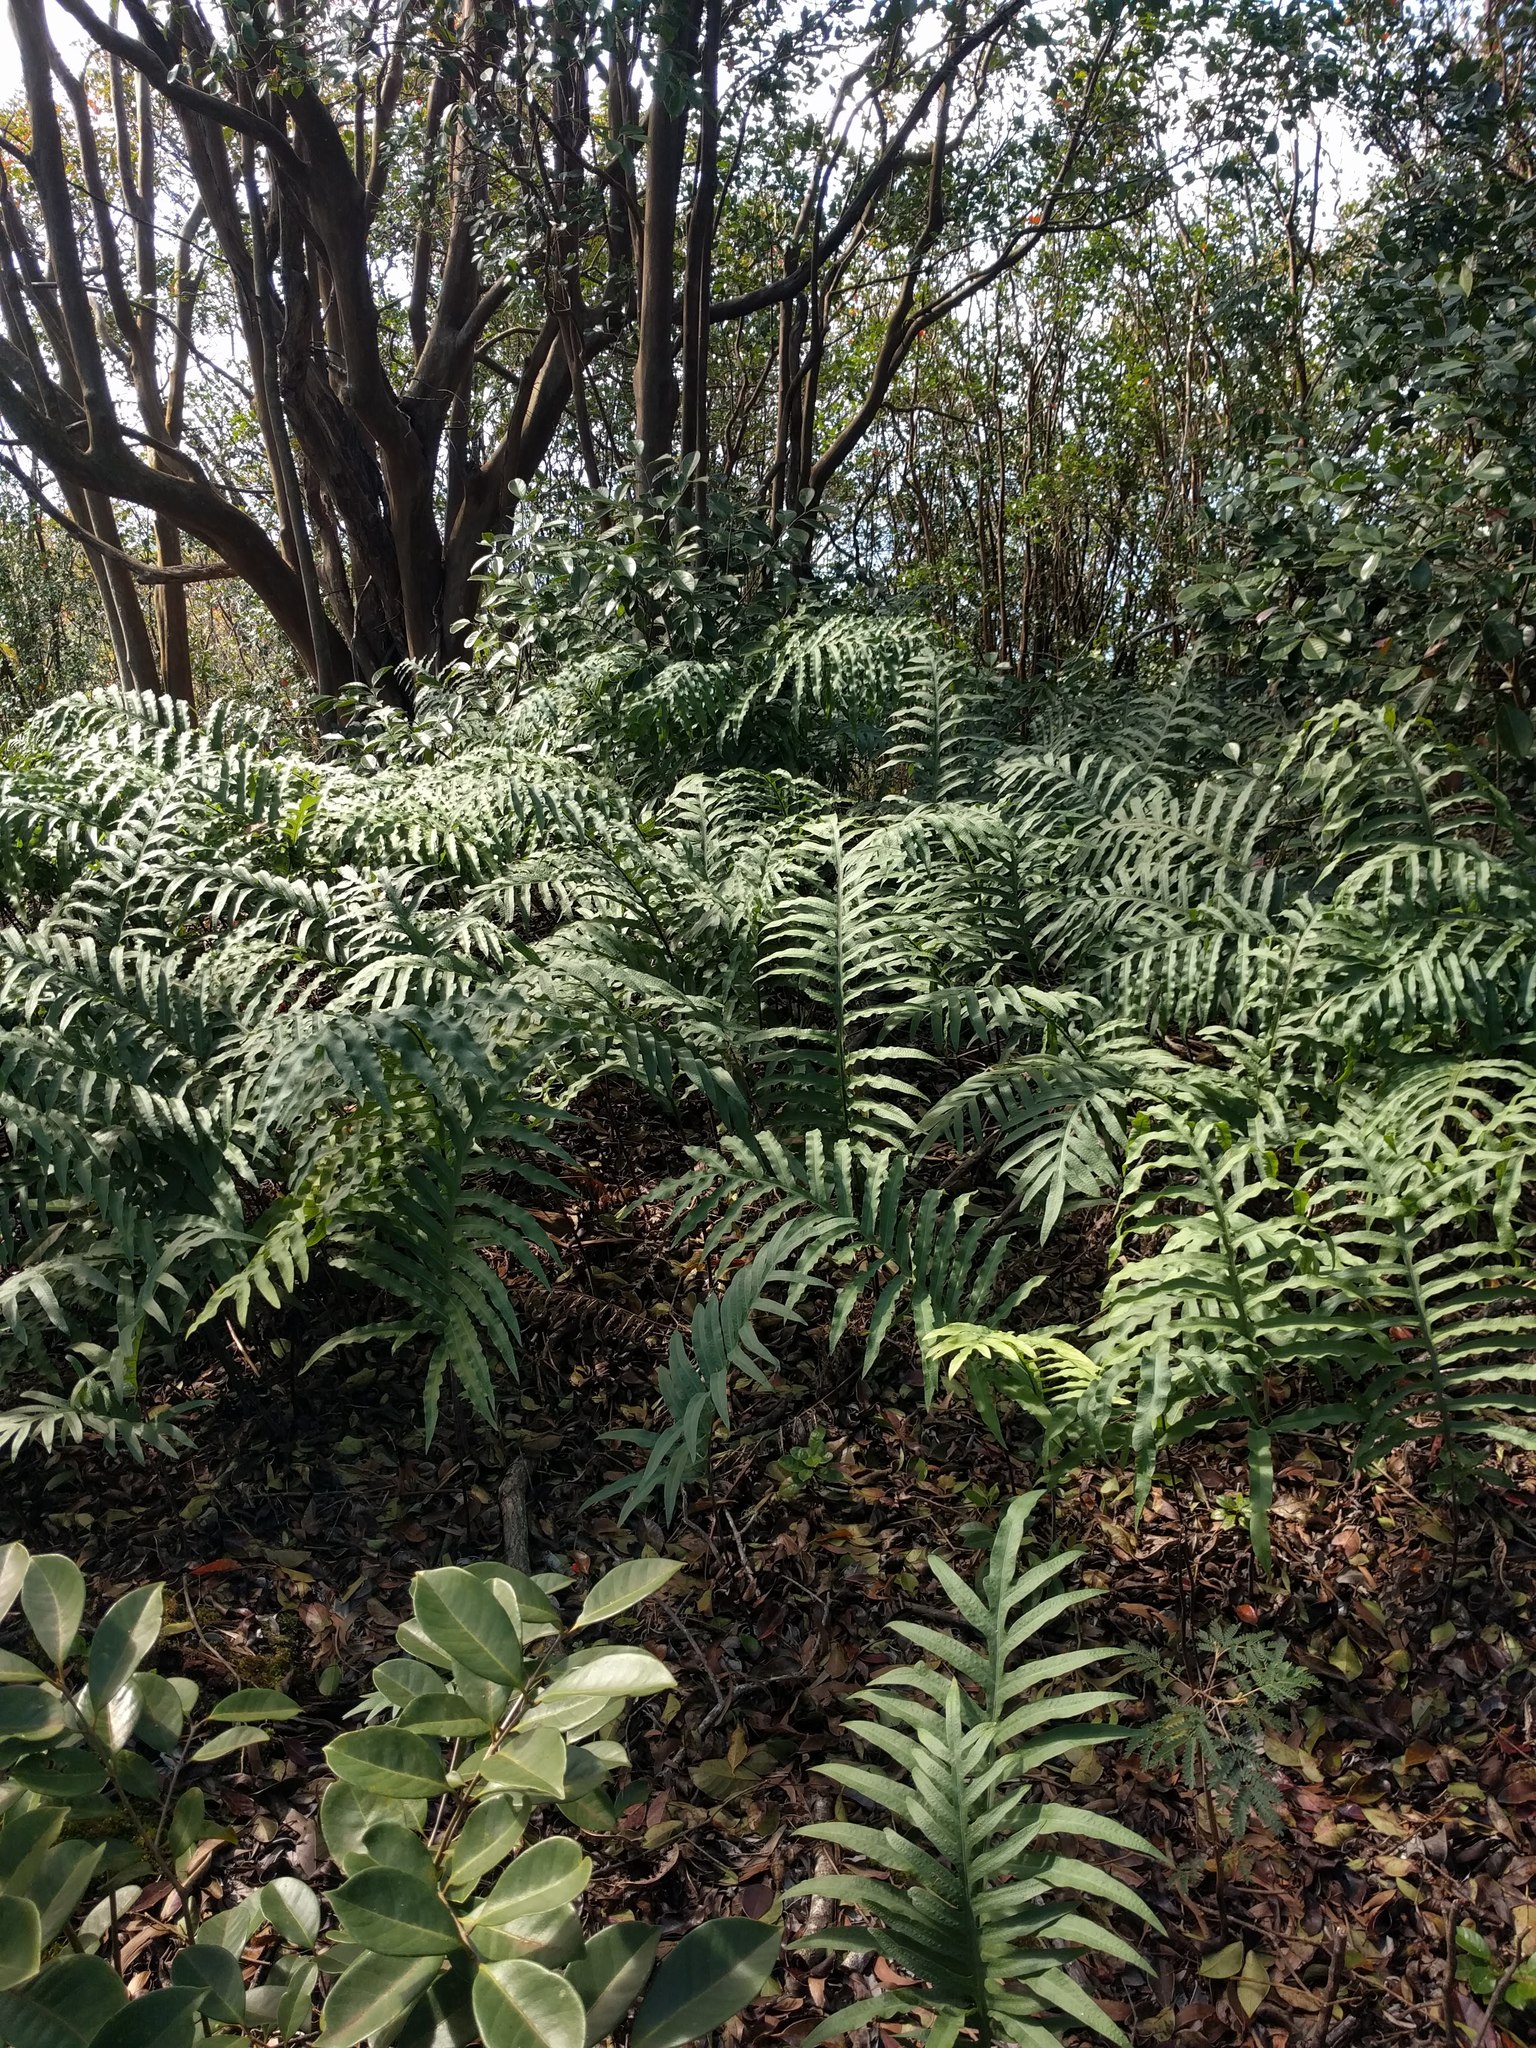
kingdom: Plantae
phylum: Tracheophyta
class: Polypodiopsida
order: Polypodiales
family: Polypodiaceae
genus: Phlebodium
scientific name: Phlebodium aureum
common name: Gold-foot fern
